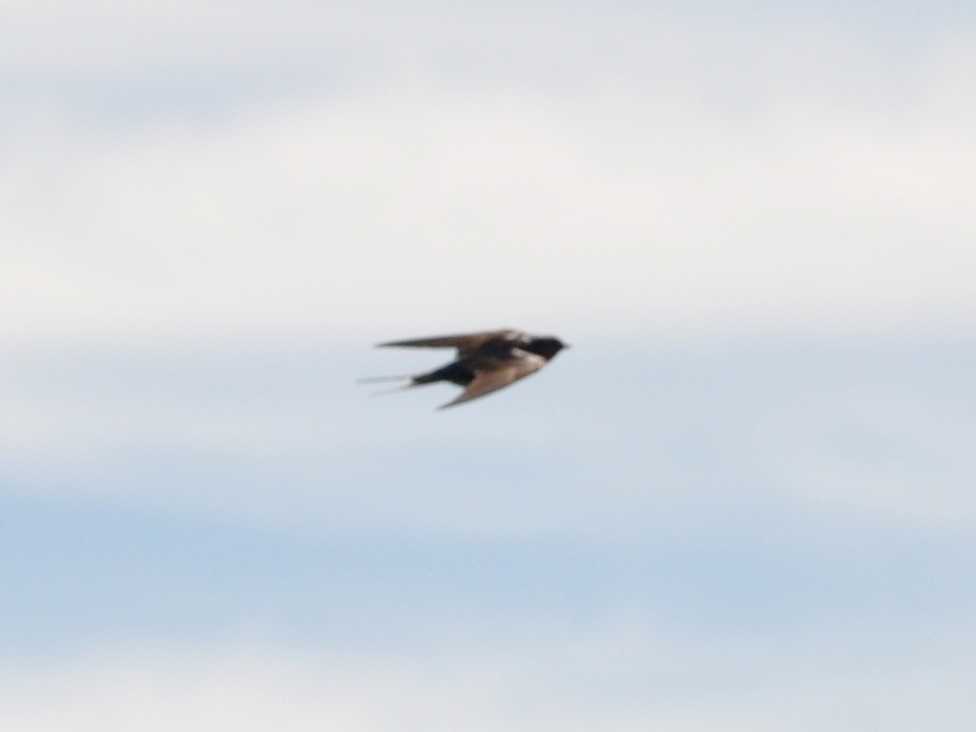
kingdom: Animalia
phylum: Chordata
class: Aves
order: Passeriformes
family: Hirundinidae
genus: Hirundo
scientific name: Hirundo neoxena
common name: Welcome swallow
